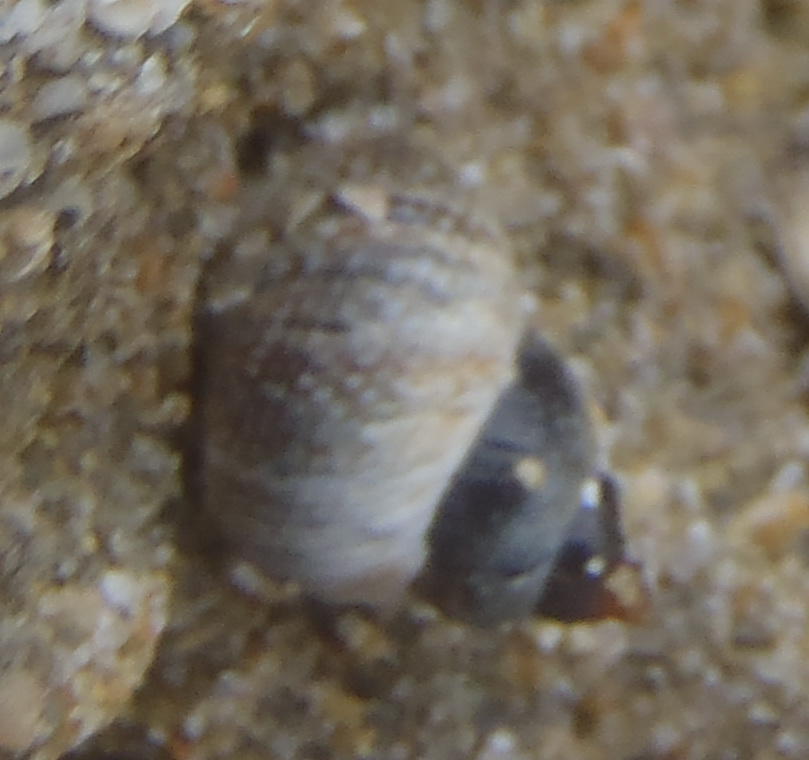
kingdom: Animalia
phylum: Mollusca
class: Gastropoda
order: Littorinimorpha
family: Littorinidae
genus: Afrolittorina
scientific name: Afrolittorina knysnaensis
